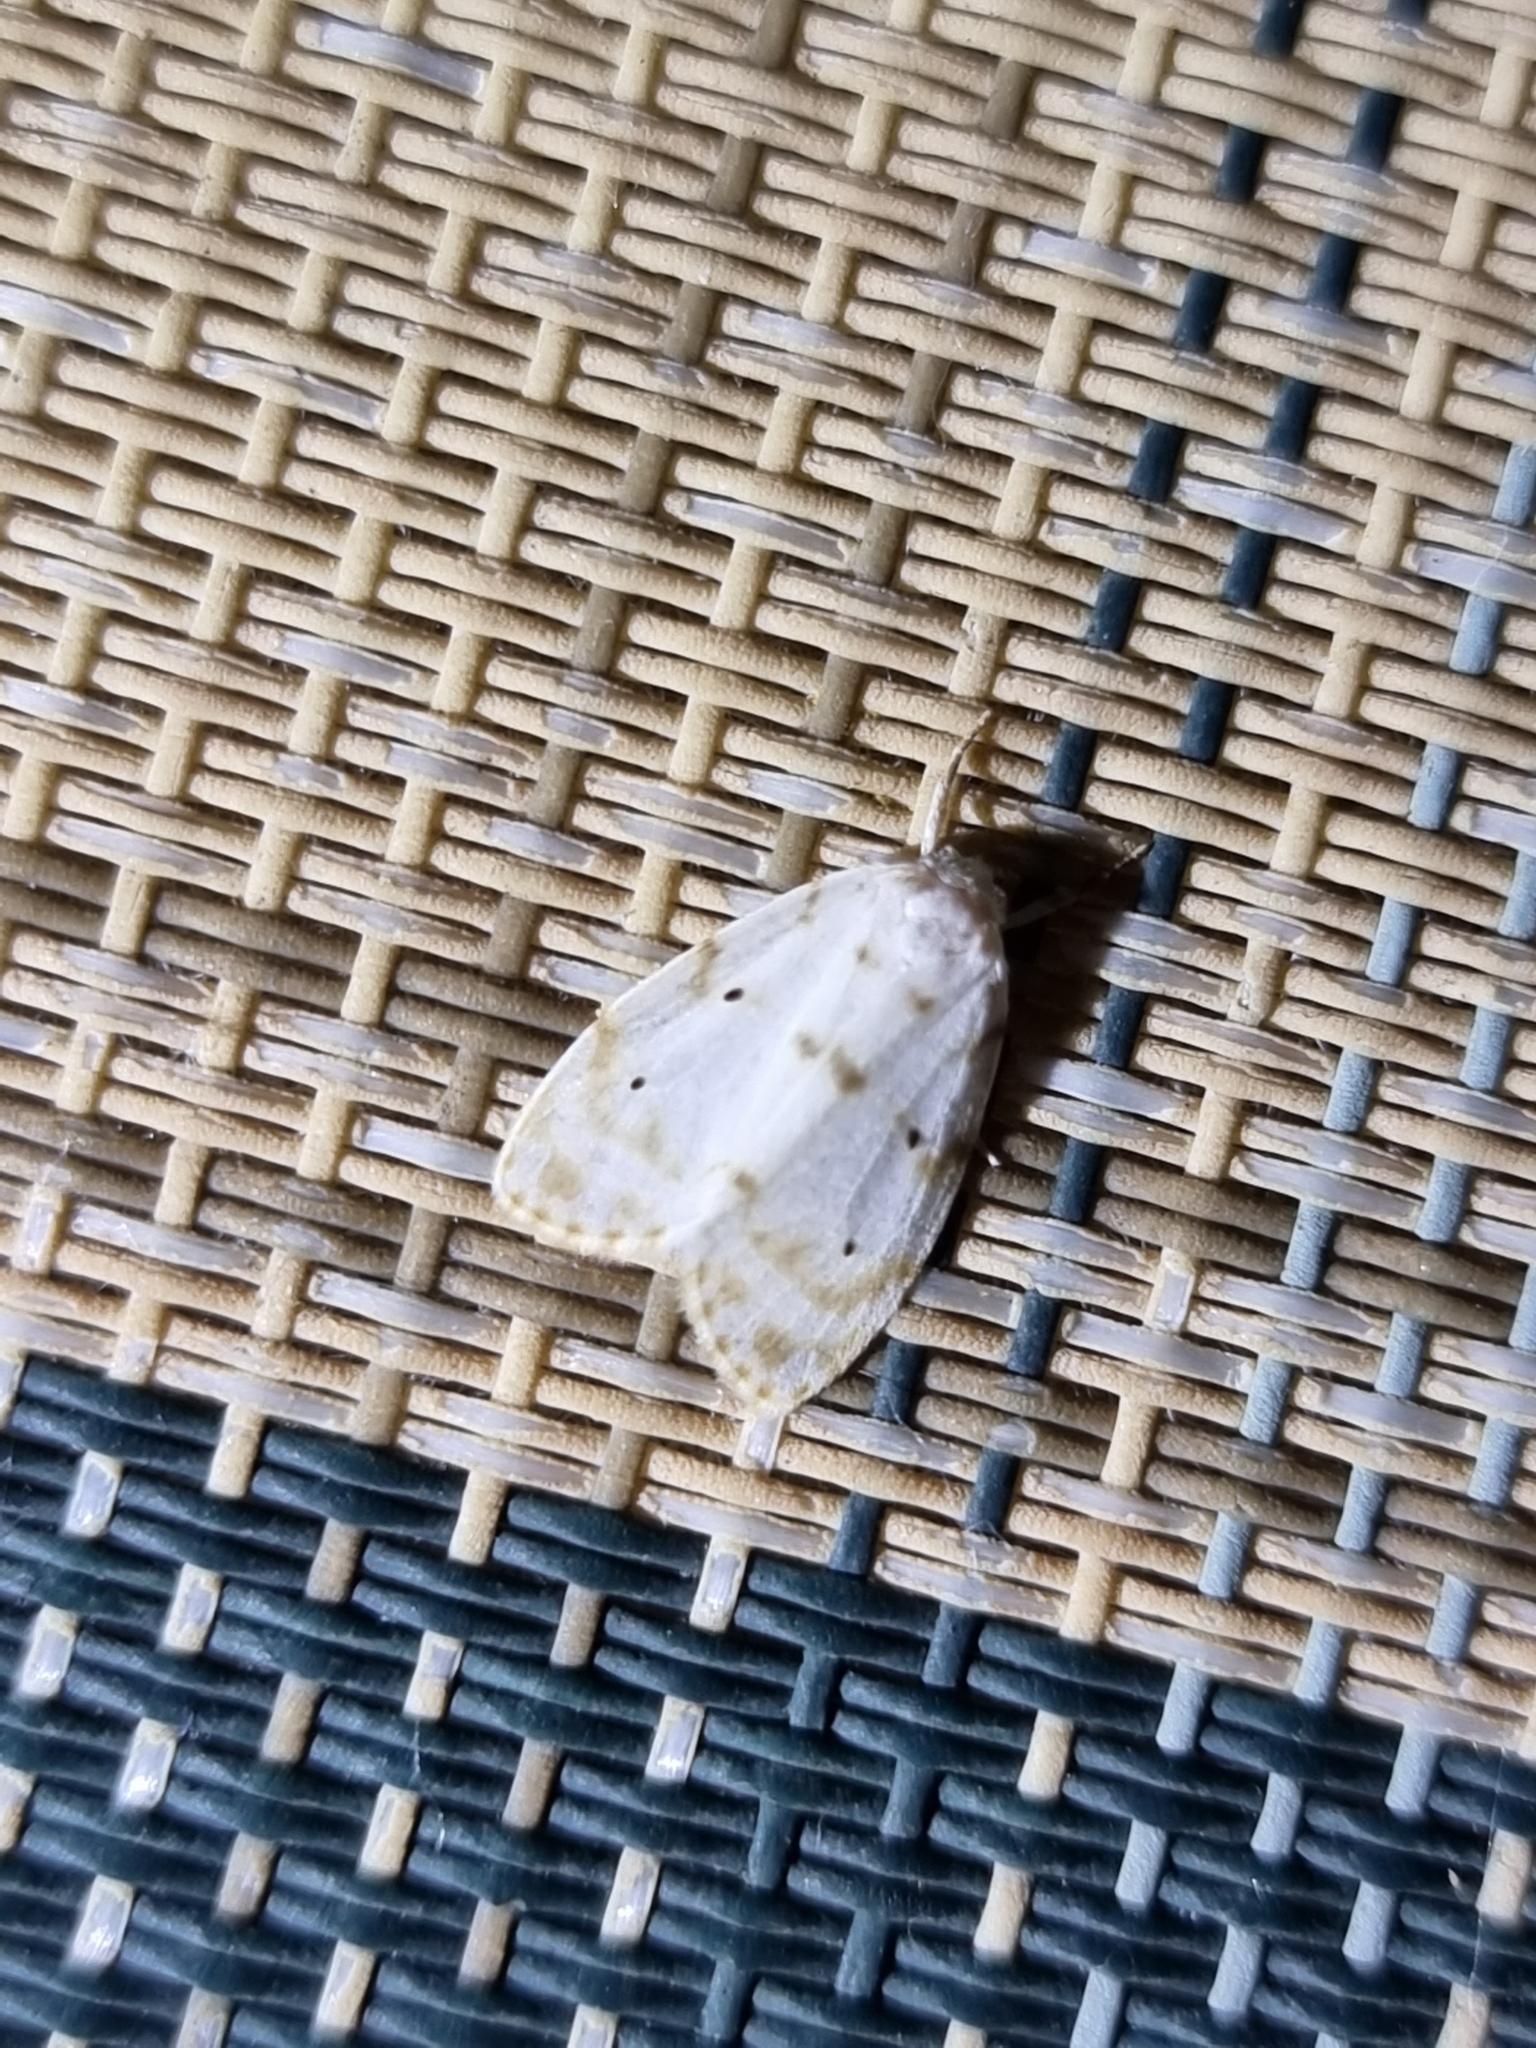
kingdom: Animalia
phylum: Arthropoda
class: Insecta
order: Lepidoptera
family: Erebidae
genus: Schistophleps
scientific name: Schistophleps albida
